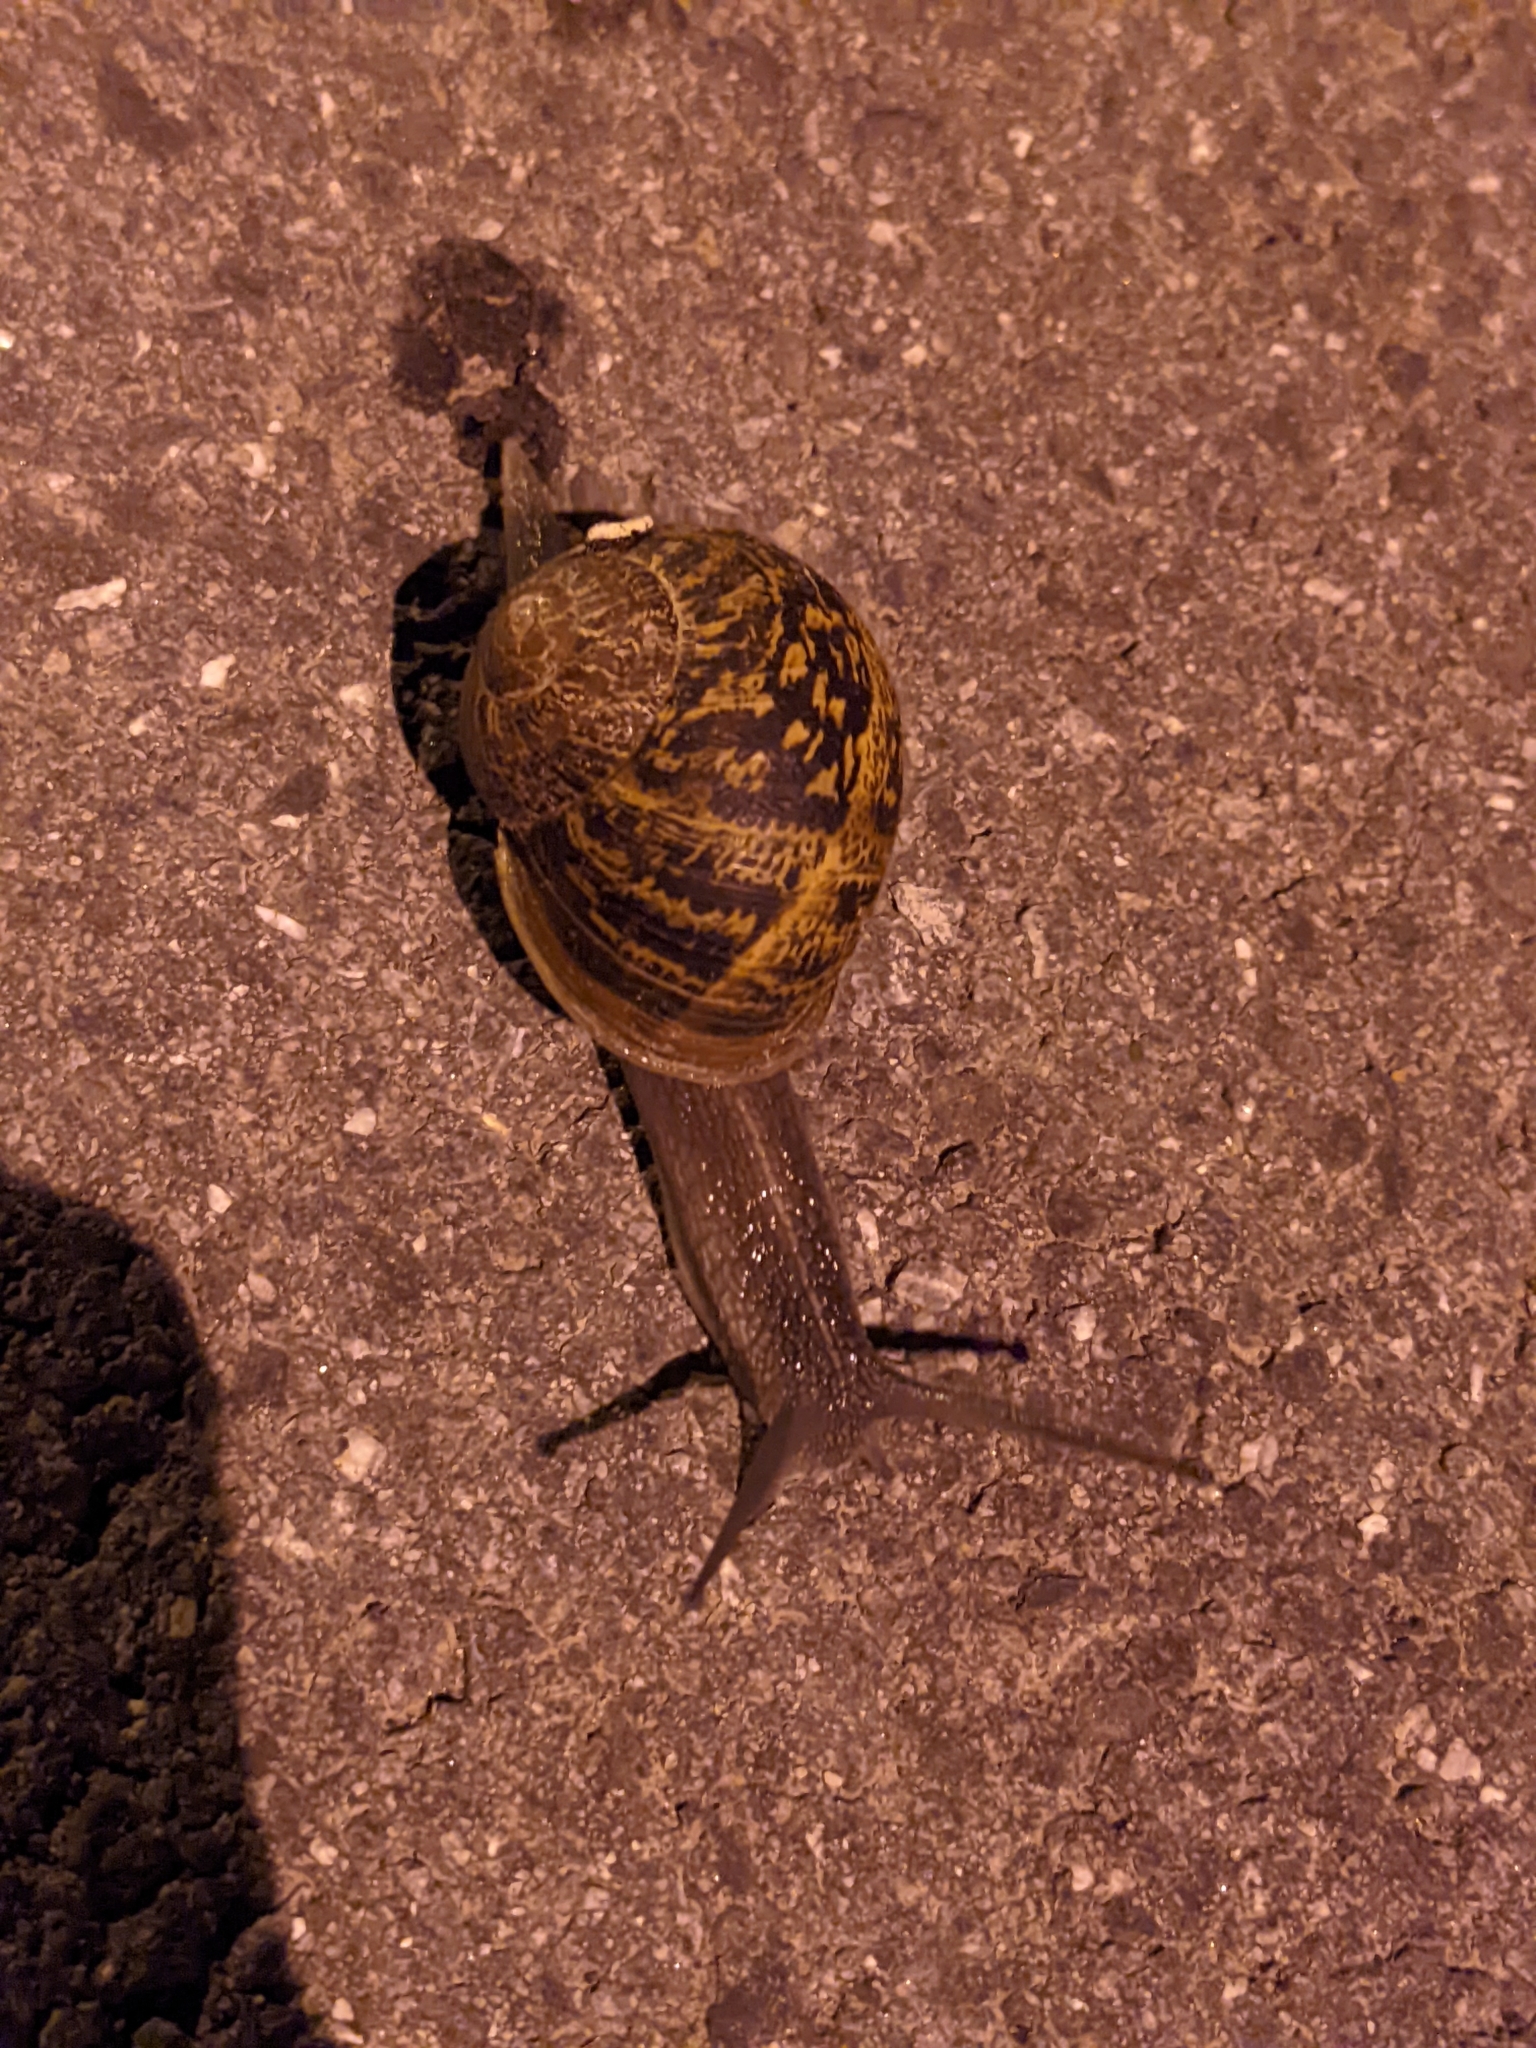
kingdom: Animalia
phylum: Mollusca
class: Gastropoda
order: Stylommatophora
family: Helicidae
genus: Cornu
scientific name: Cornu aspersum
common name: Brown garden snail
